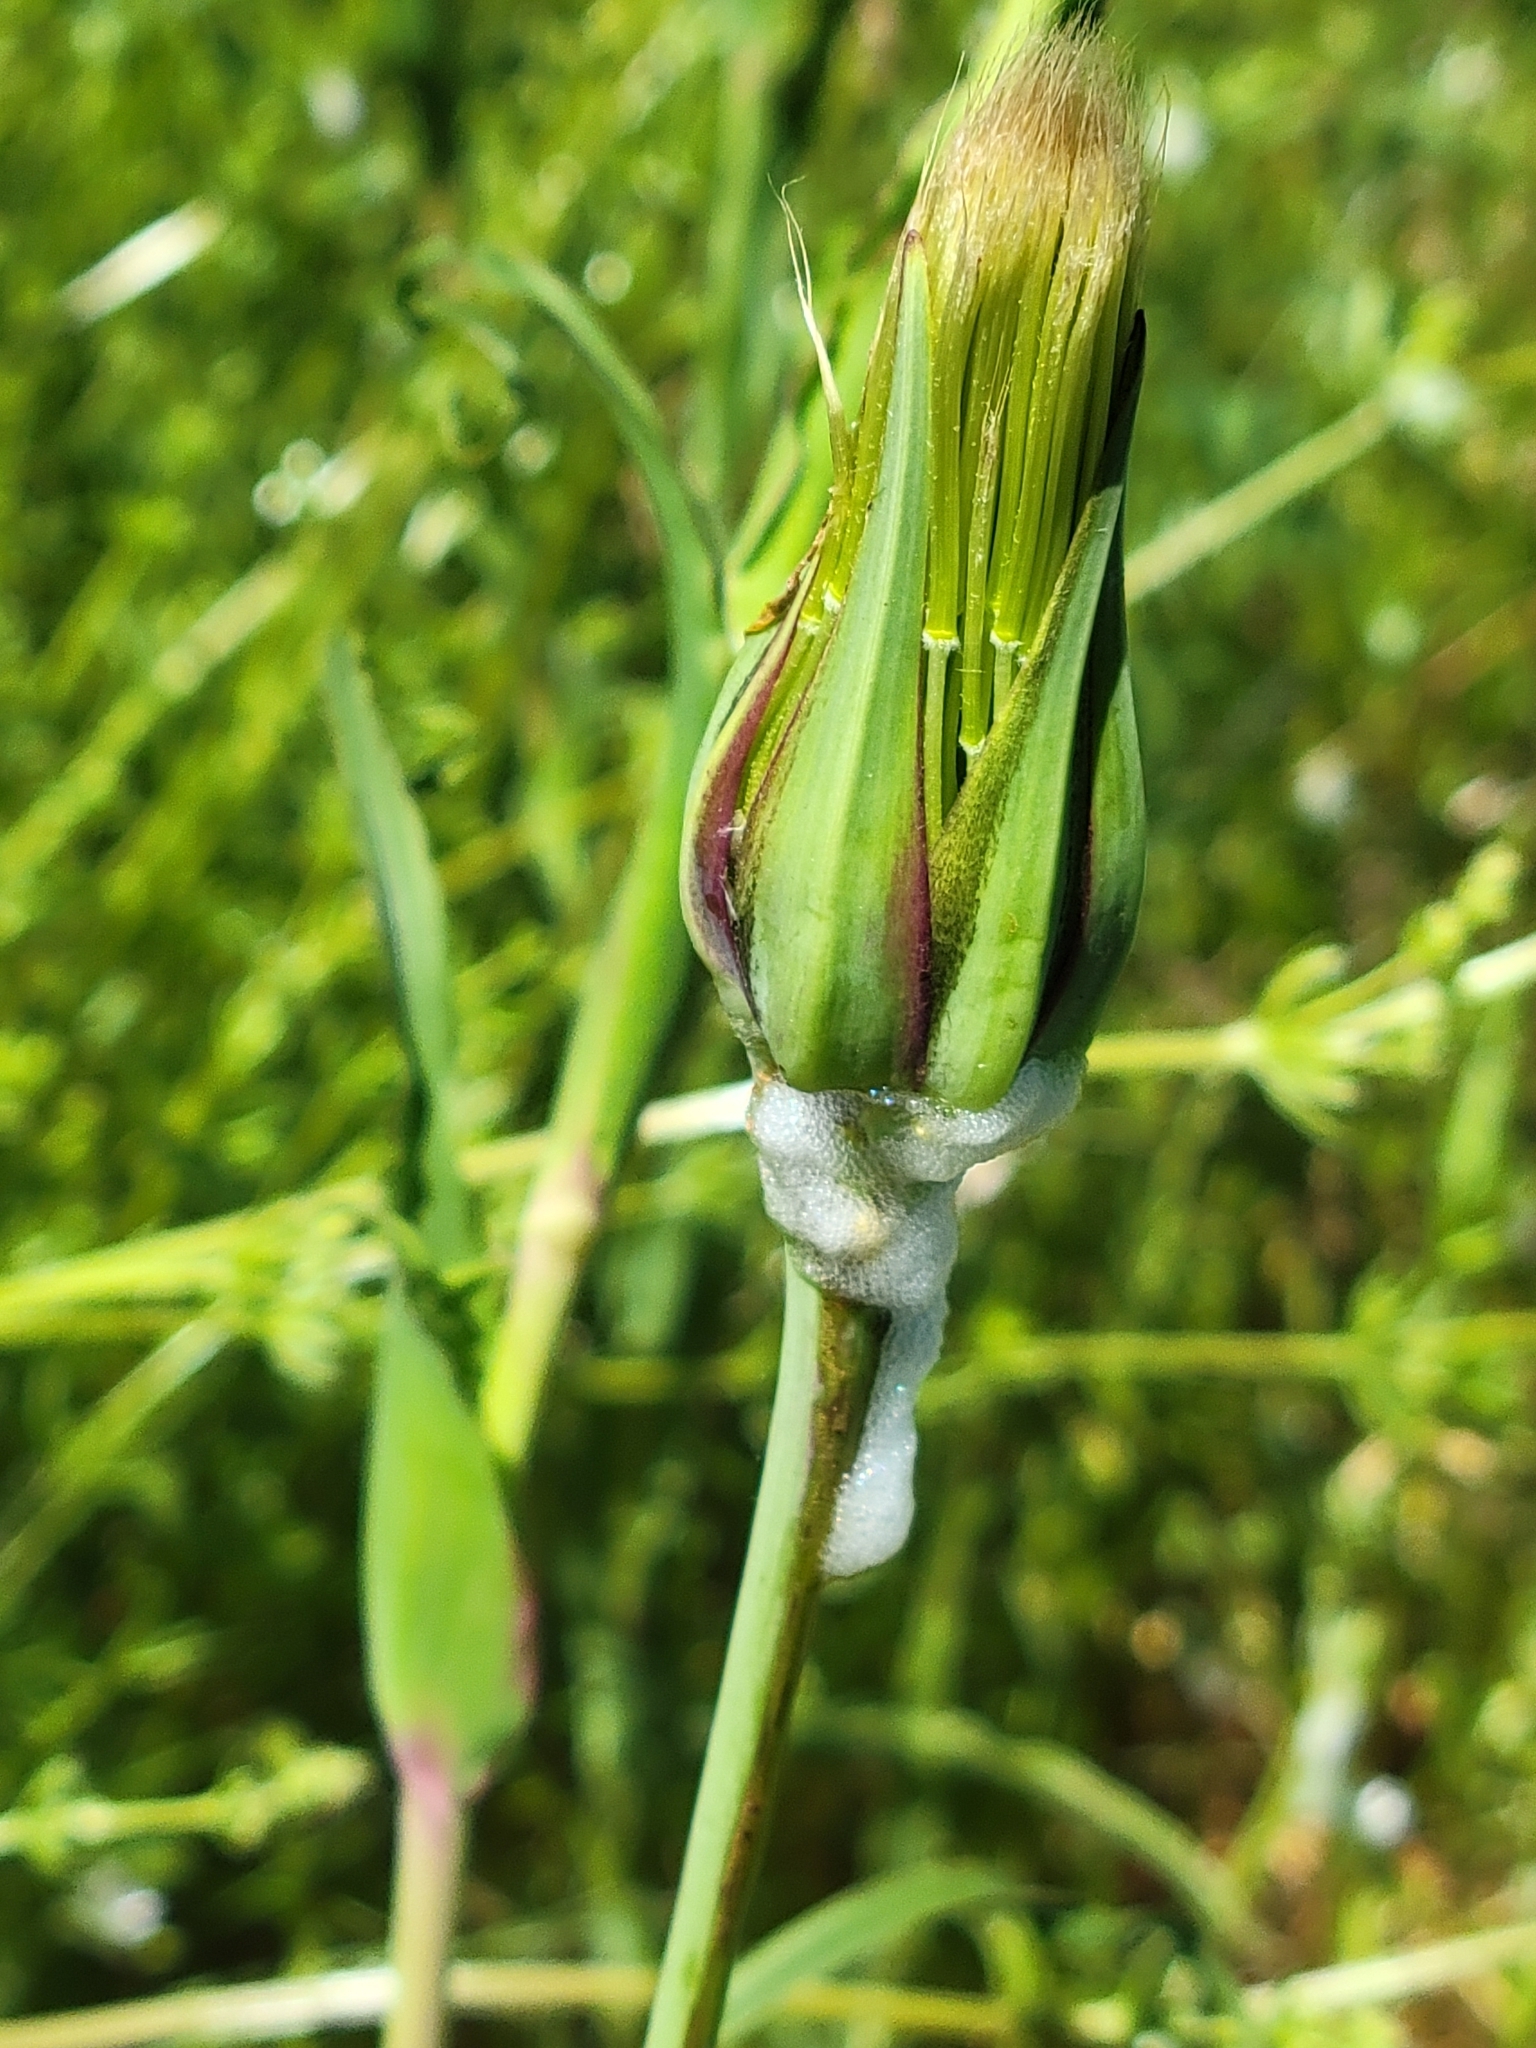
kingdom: Plantae
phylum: Tracheophyta
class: Magnoliopsida
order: Asterales
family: Asteraceae
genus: Tragopogon
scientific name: Tragopogon pratensis
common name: Goat's-beard
